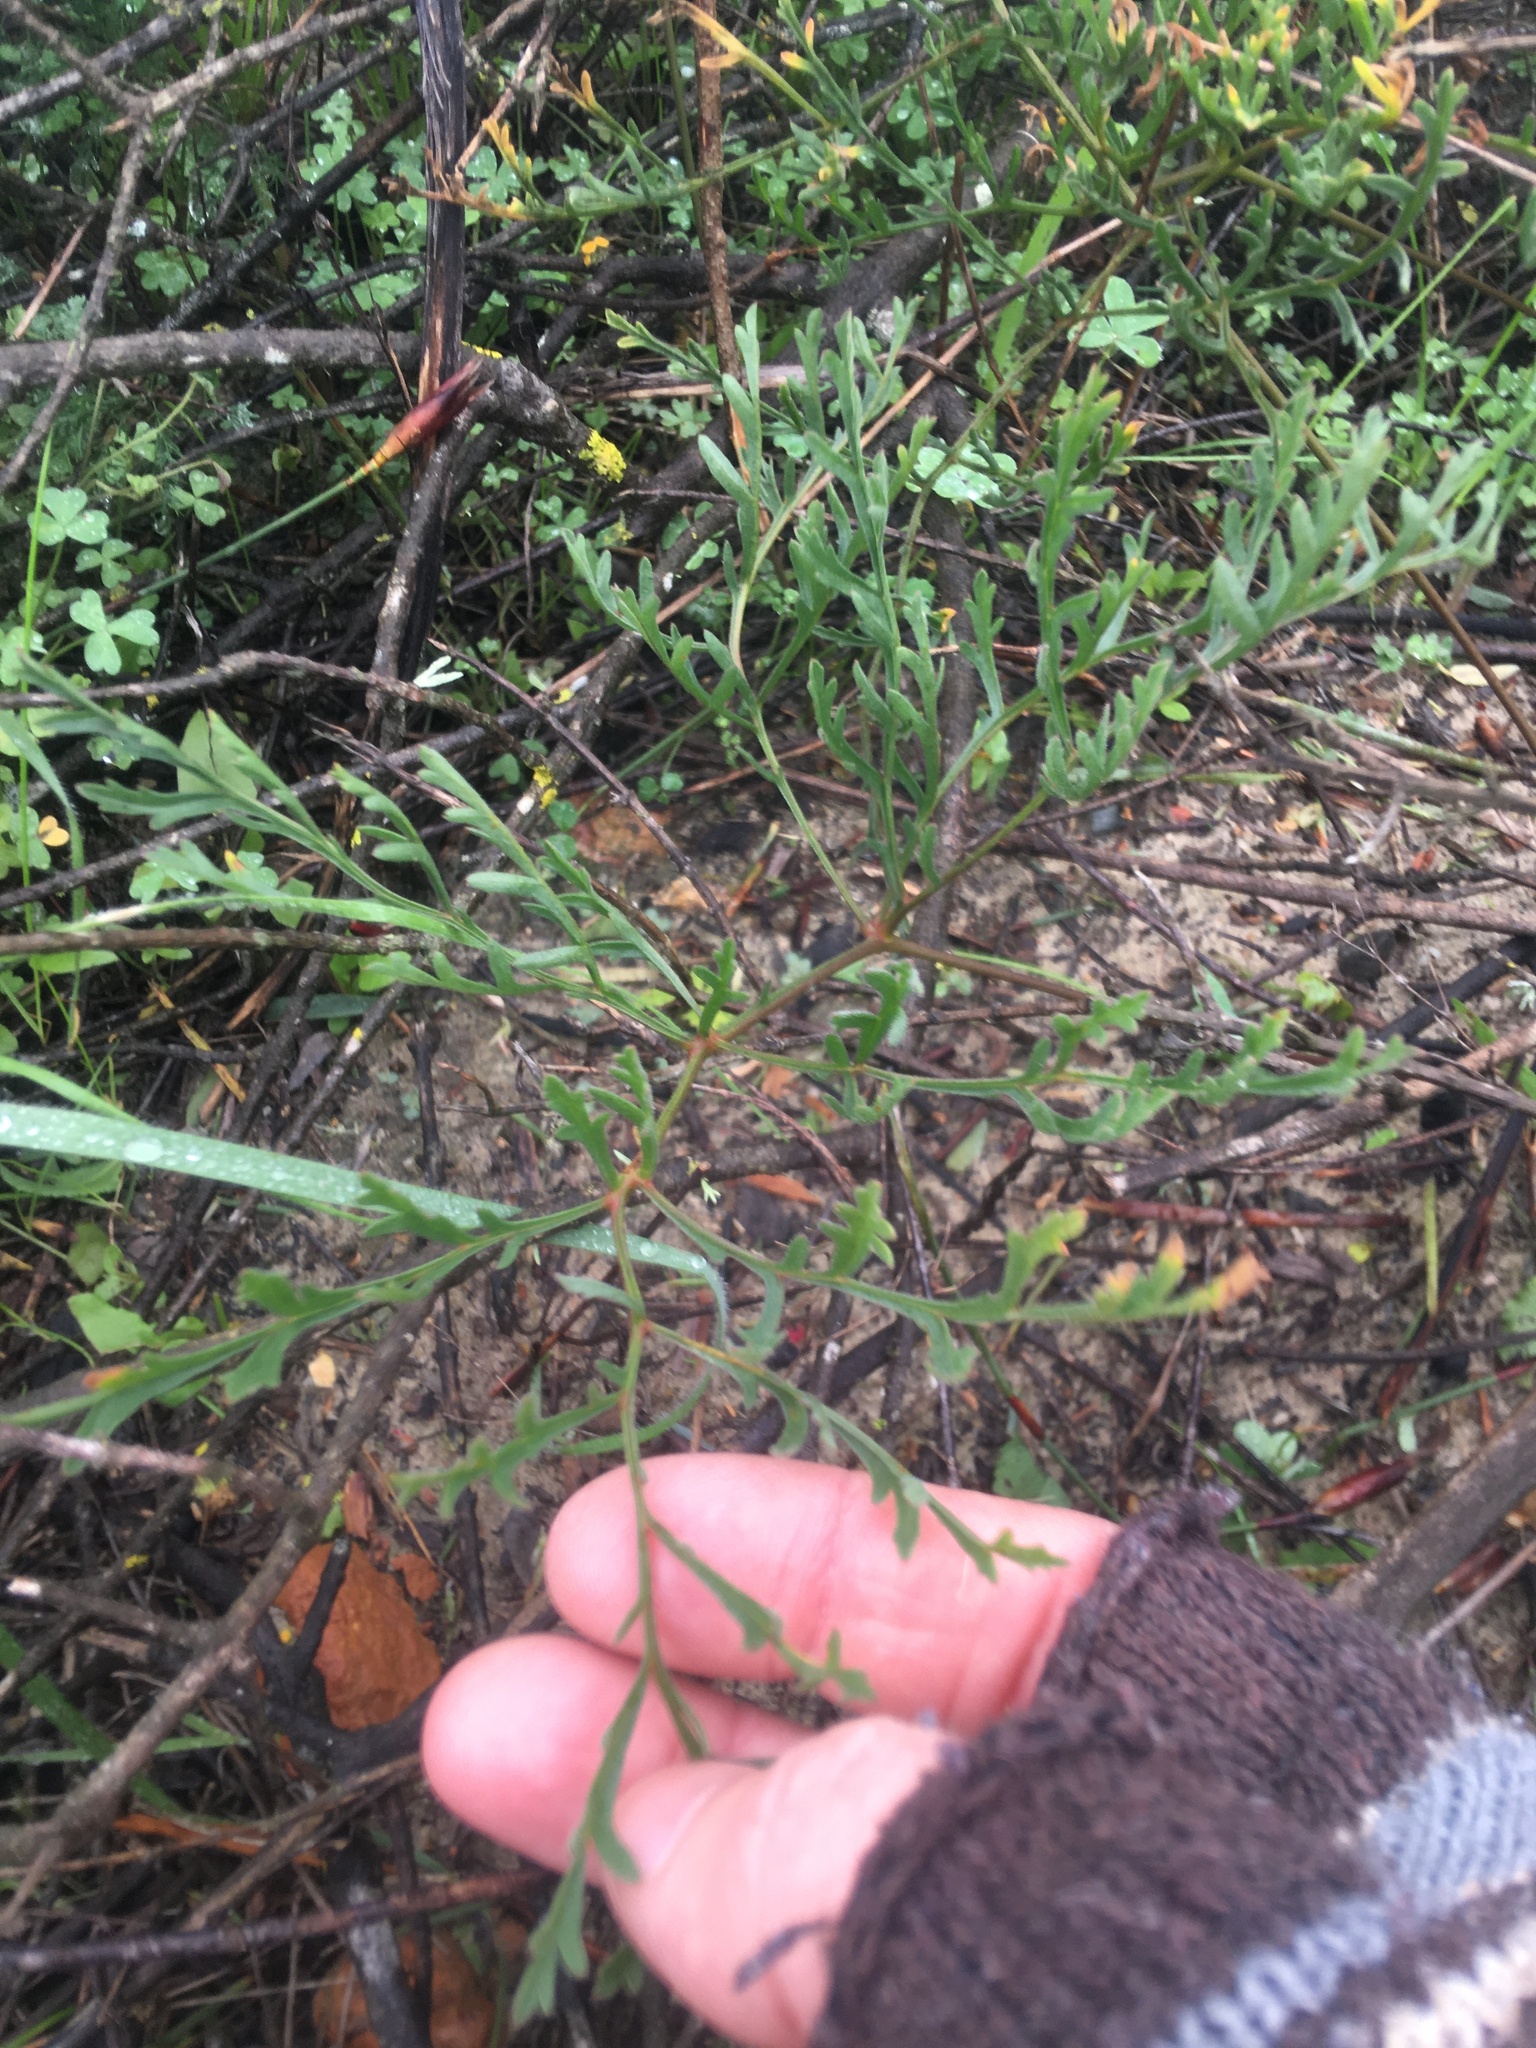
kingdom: Plantae
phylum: Tracheophyta
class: Magnoliopsida
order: Geraniales
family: Geraniaceae
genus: Pelargonium
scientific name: Pelargonium multiradiatum
